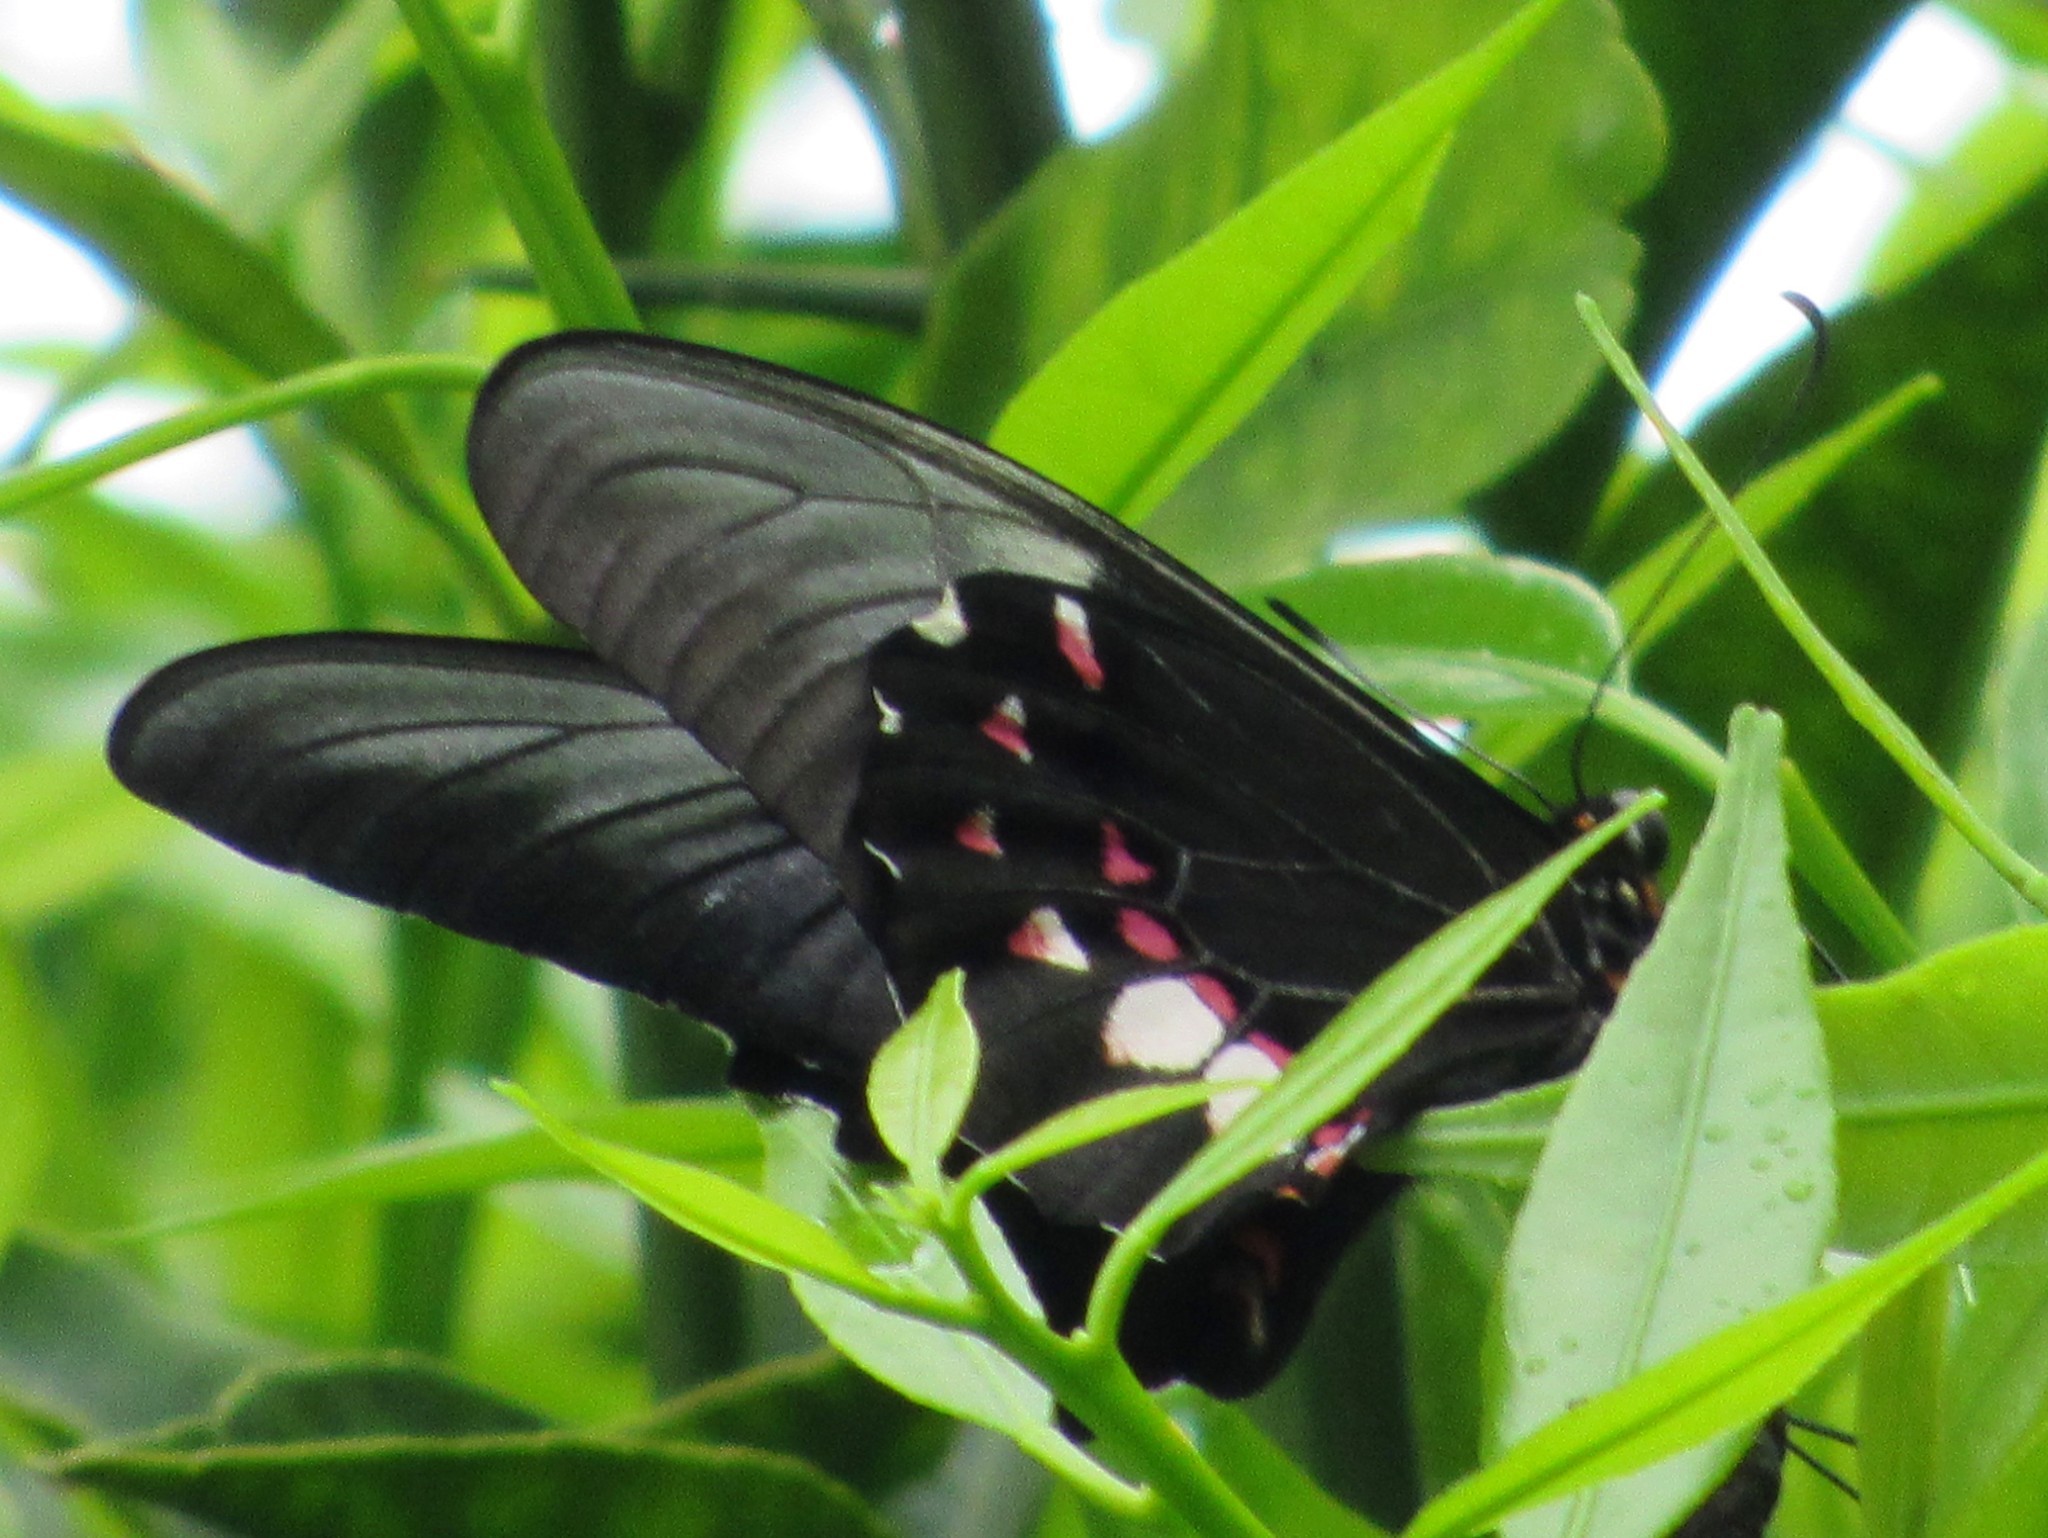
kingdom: Animalia
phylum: Arthropoda
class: Insecta
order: Lepidoptera
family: Papilionidae
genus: Papilio
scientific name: Papilio anchisiades
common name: Idaes swallowtail
